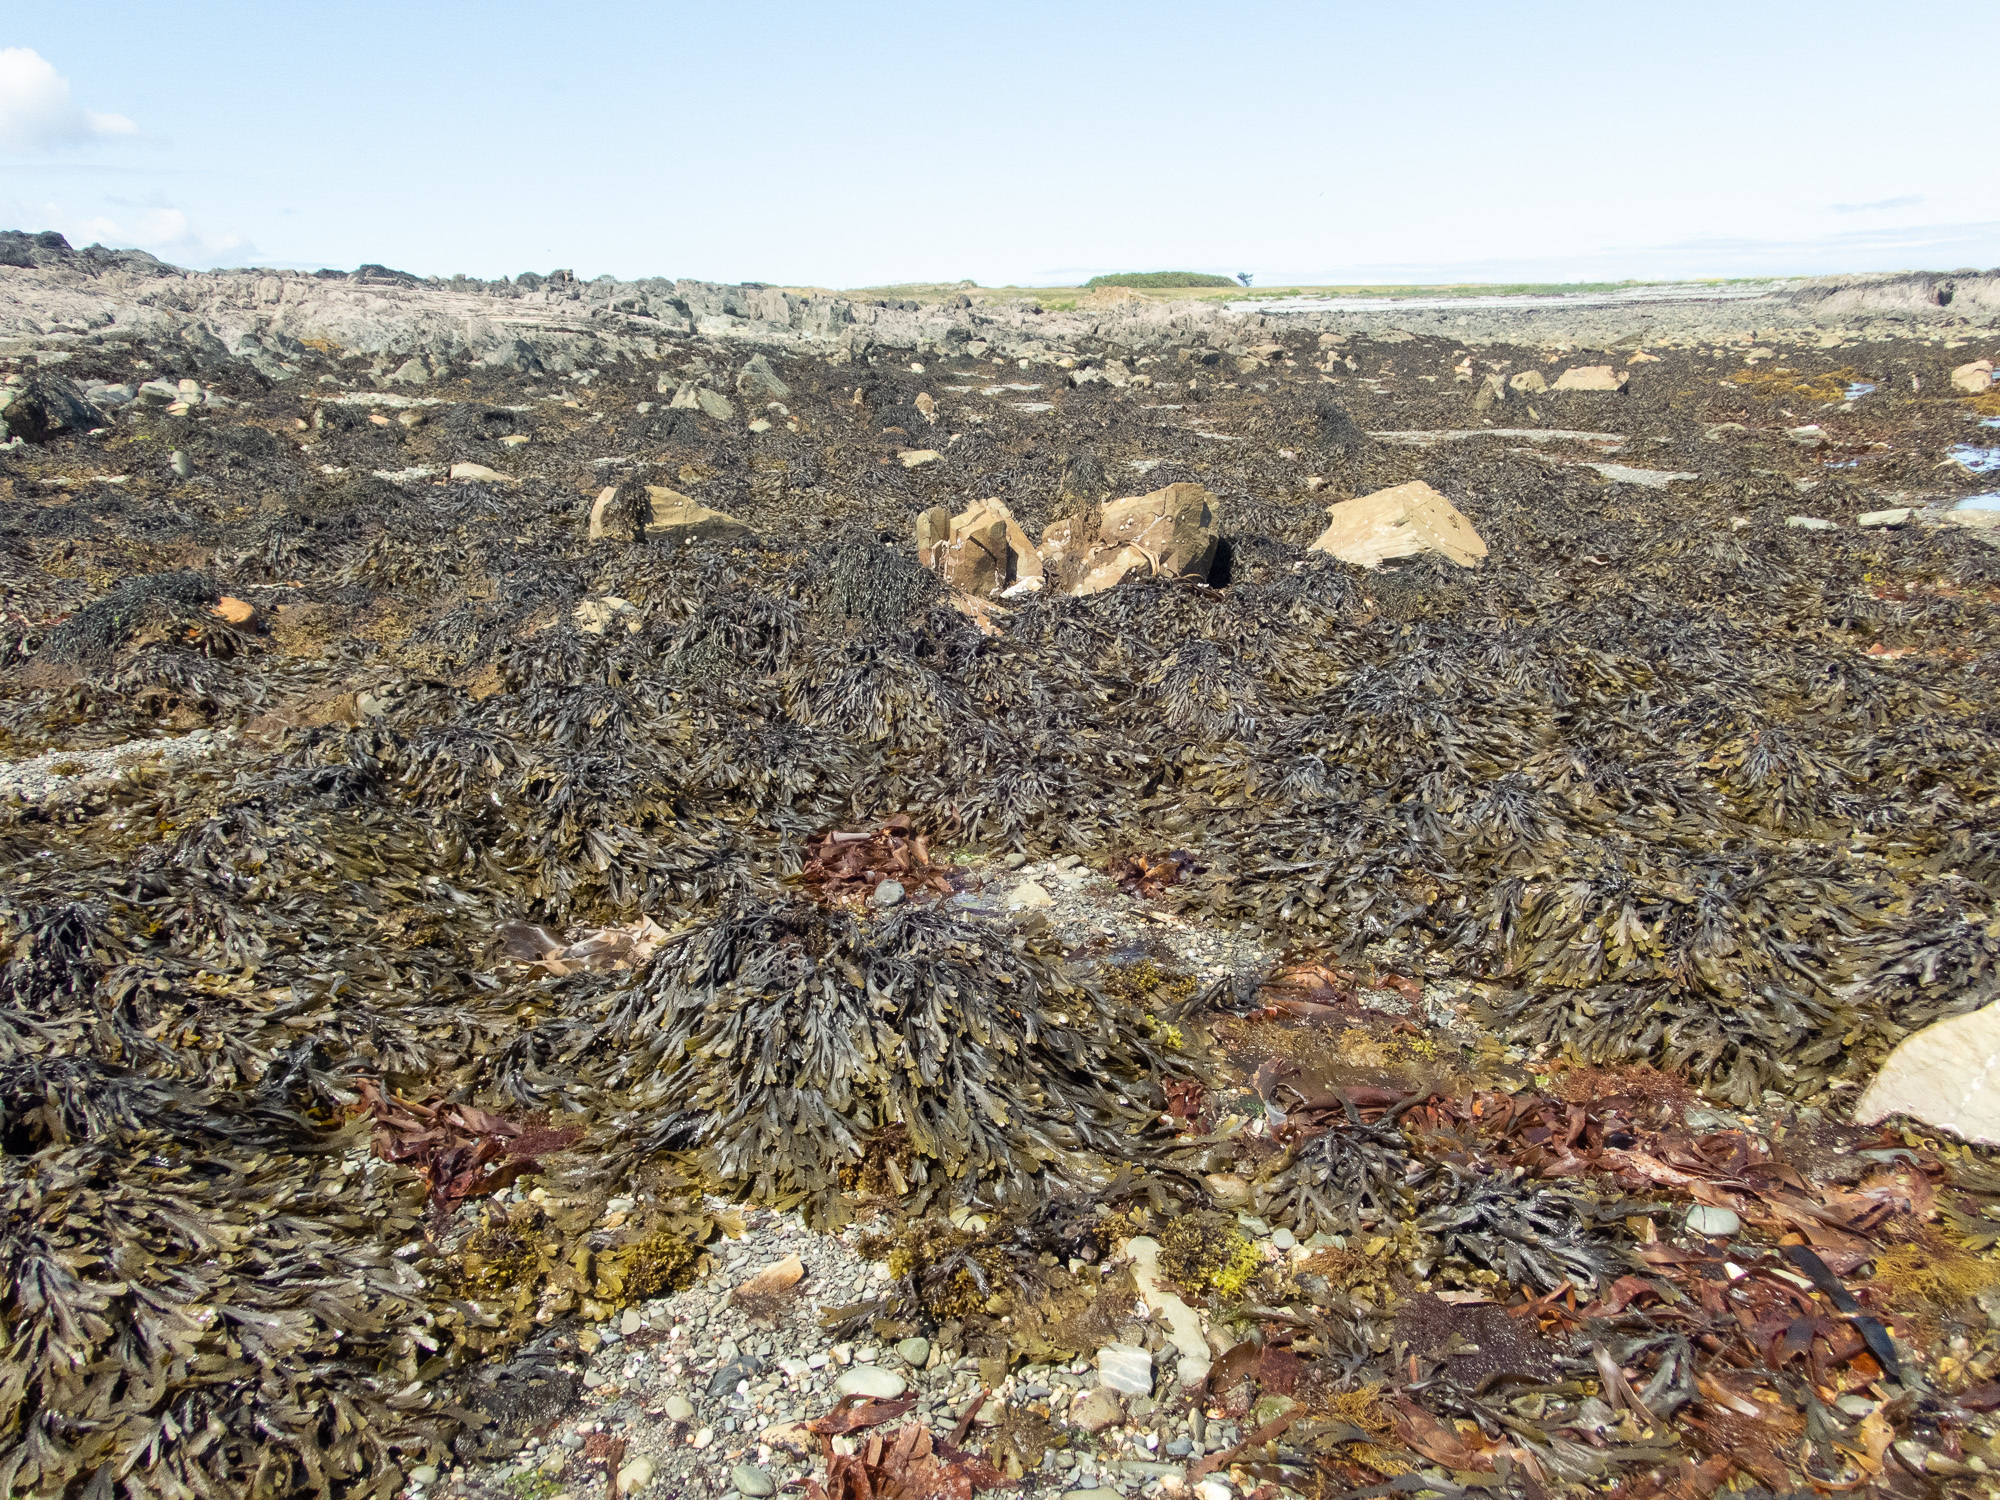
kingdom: Chromista
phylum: Ochrophyta
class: Phaeophyceae
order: Fucales
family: Fucaceae
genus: Fucus
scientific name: Fucus serratus
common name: Toothed wrack
